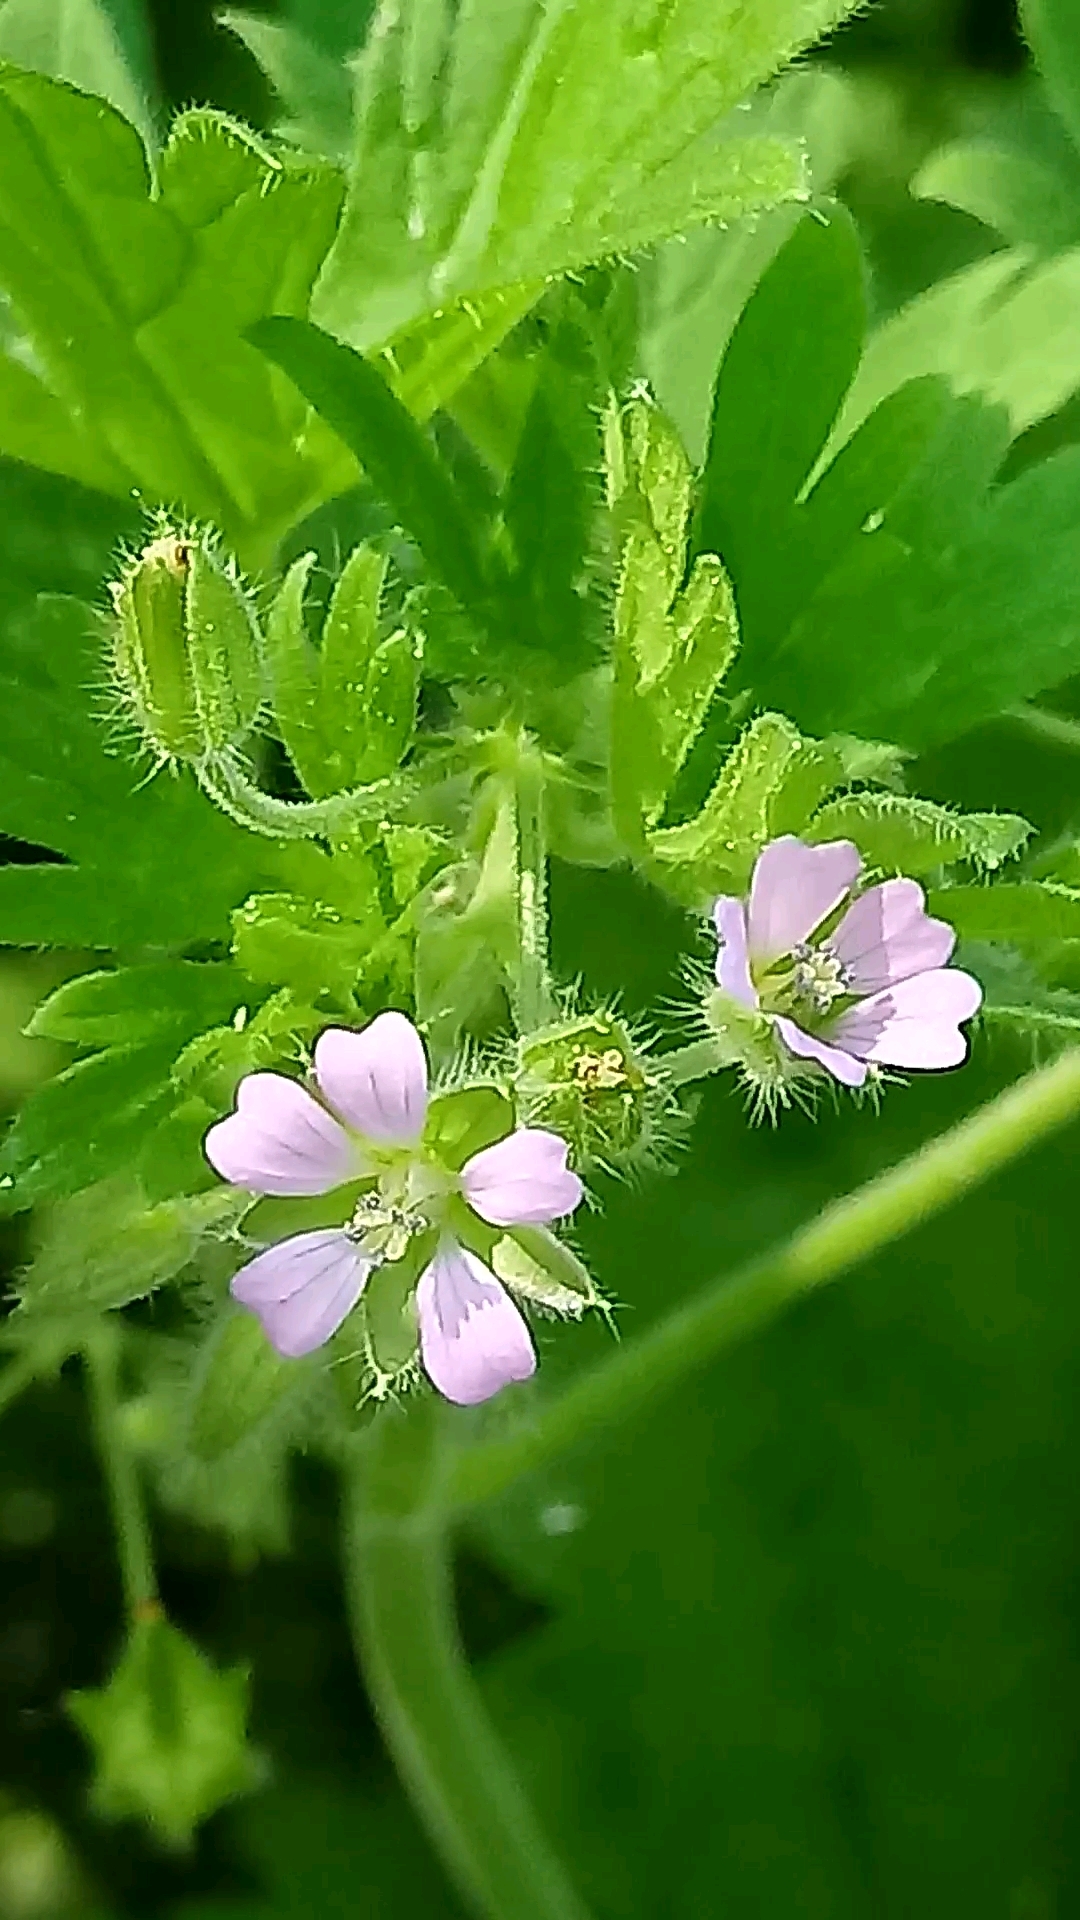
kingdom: Plantae
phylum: Tracheophyta
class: Magnoliopsida
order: Geraniales
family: Geraniaceae
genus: Geranium
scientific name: Geranium pusillum
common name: Small geranium
